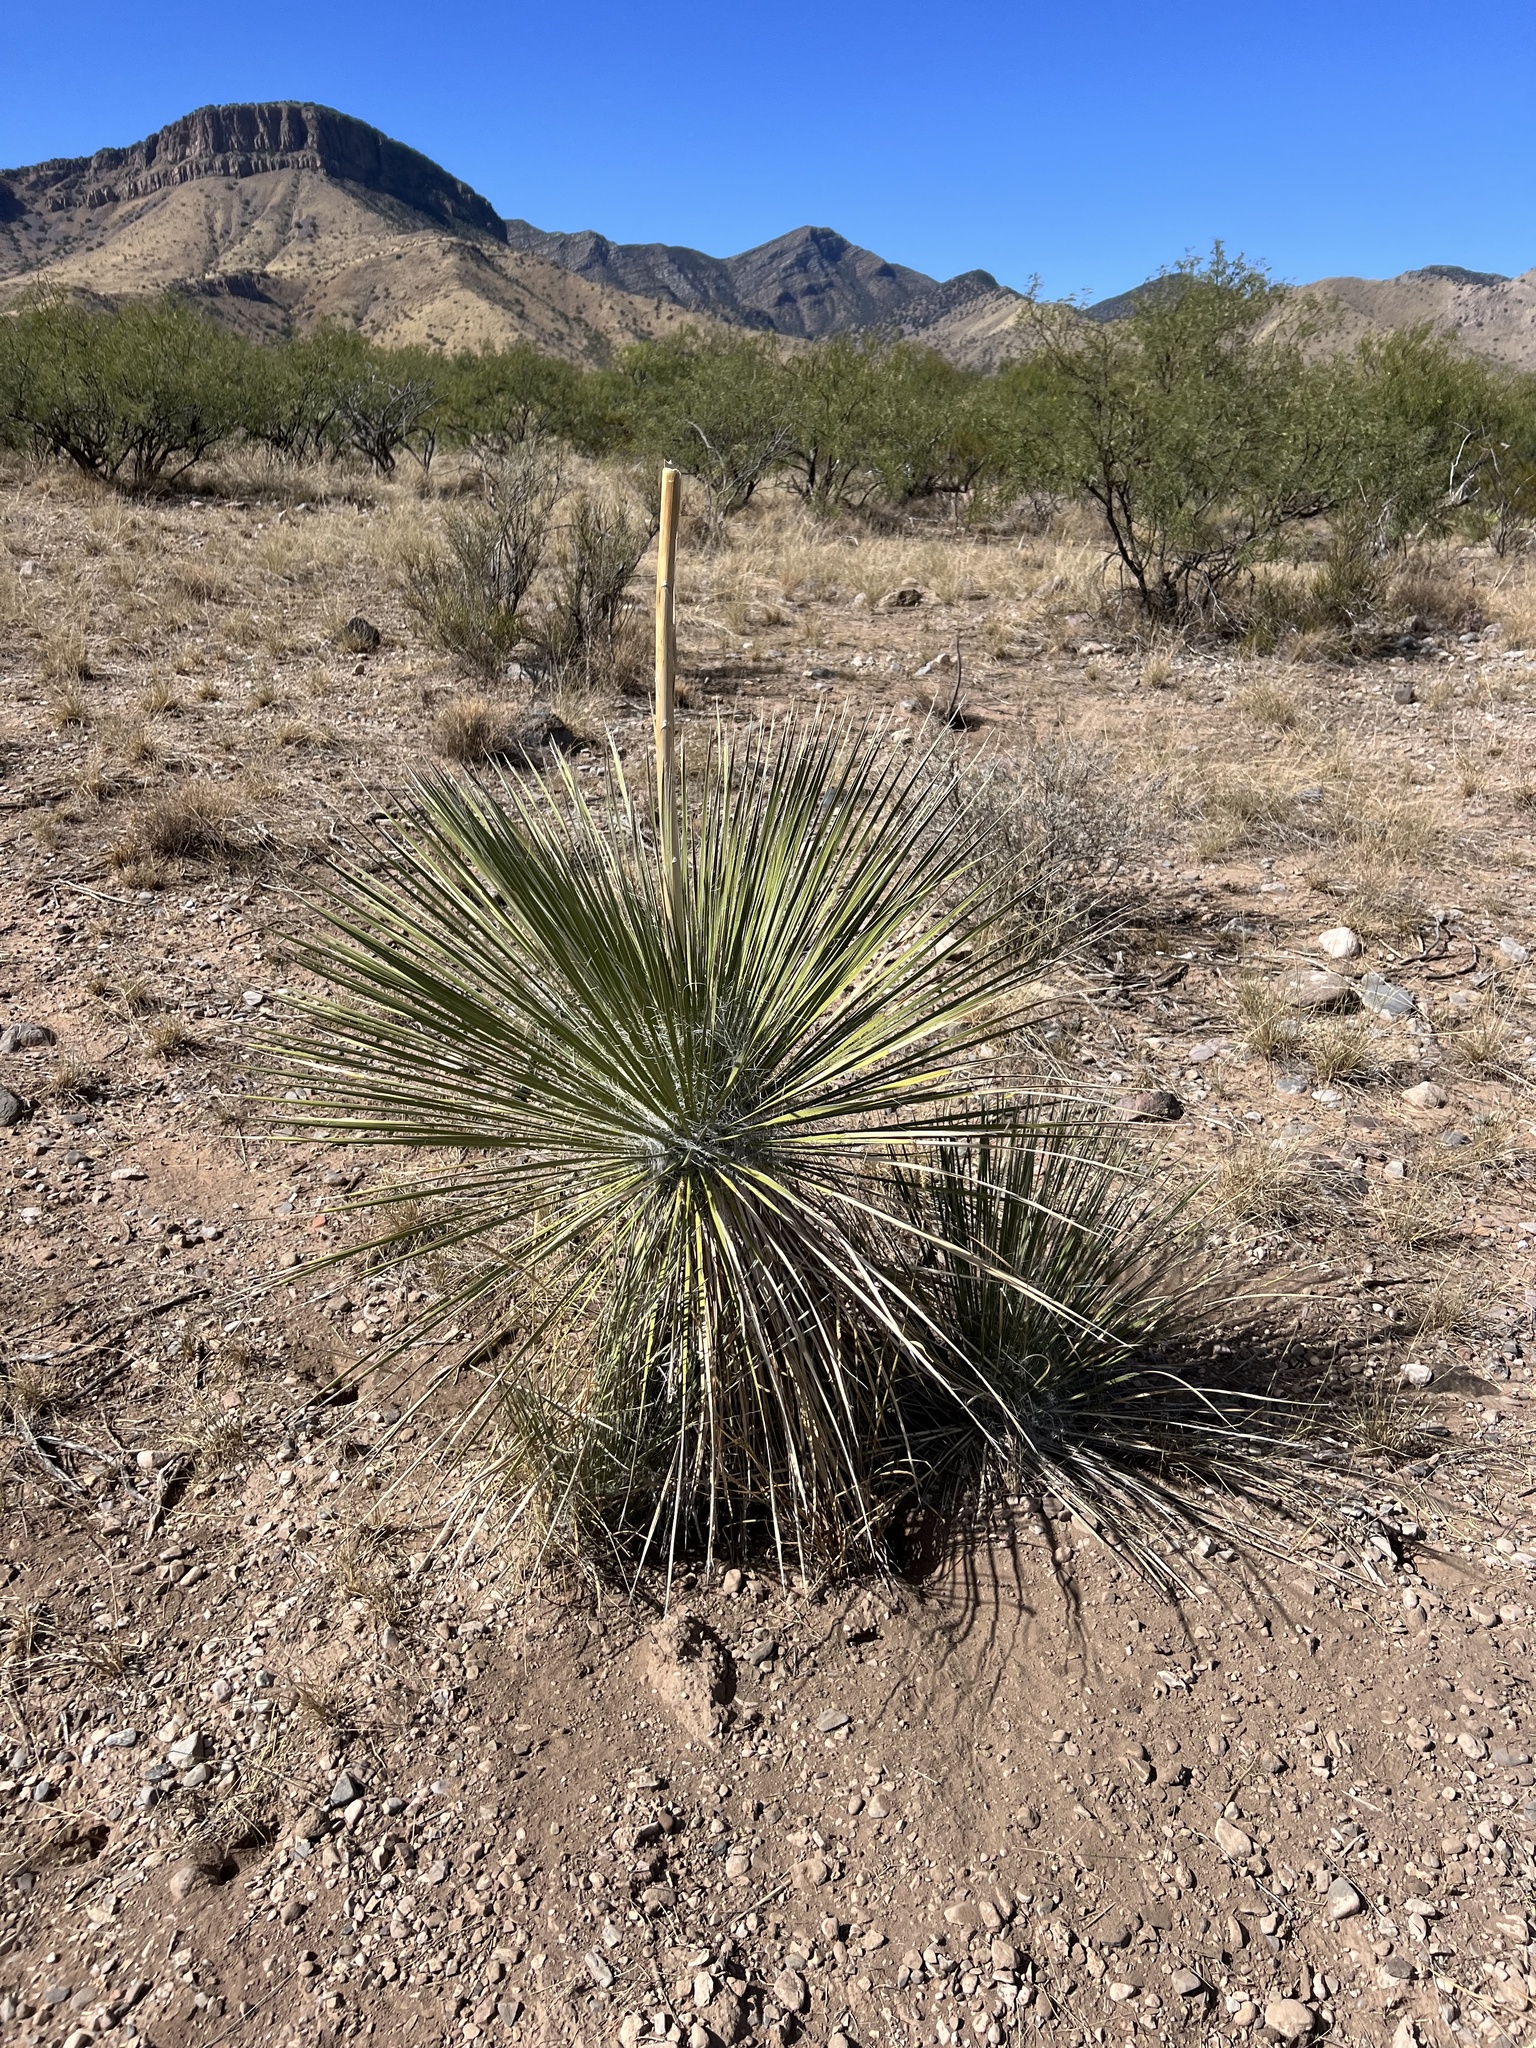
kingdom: Plantae
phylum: Tracheophyta
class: Liliopsida
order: Asparagales
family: Asparagaceae
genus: Yucca
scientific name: Yucca elata
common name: Palmella
